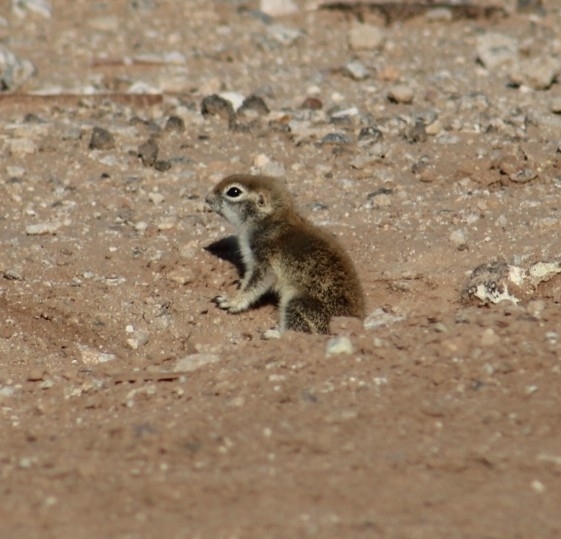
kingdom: Animalia
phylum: Chordata
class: Mammalia
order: Rodentia
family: Sciuridae
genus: Xerospermophilus
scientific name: Xerospermophilus tereticaudus
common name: Round-tailed ground squirrel
